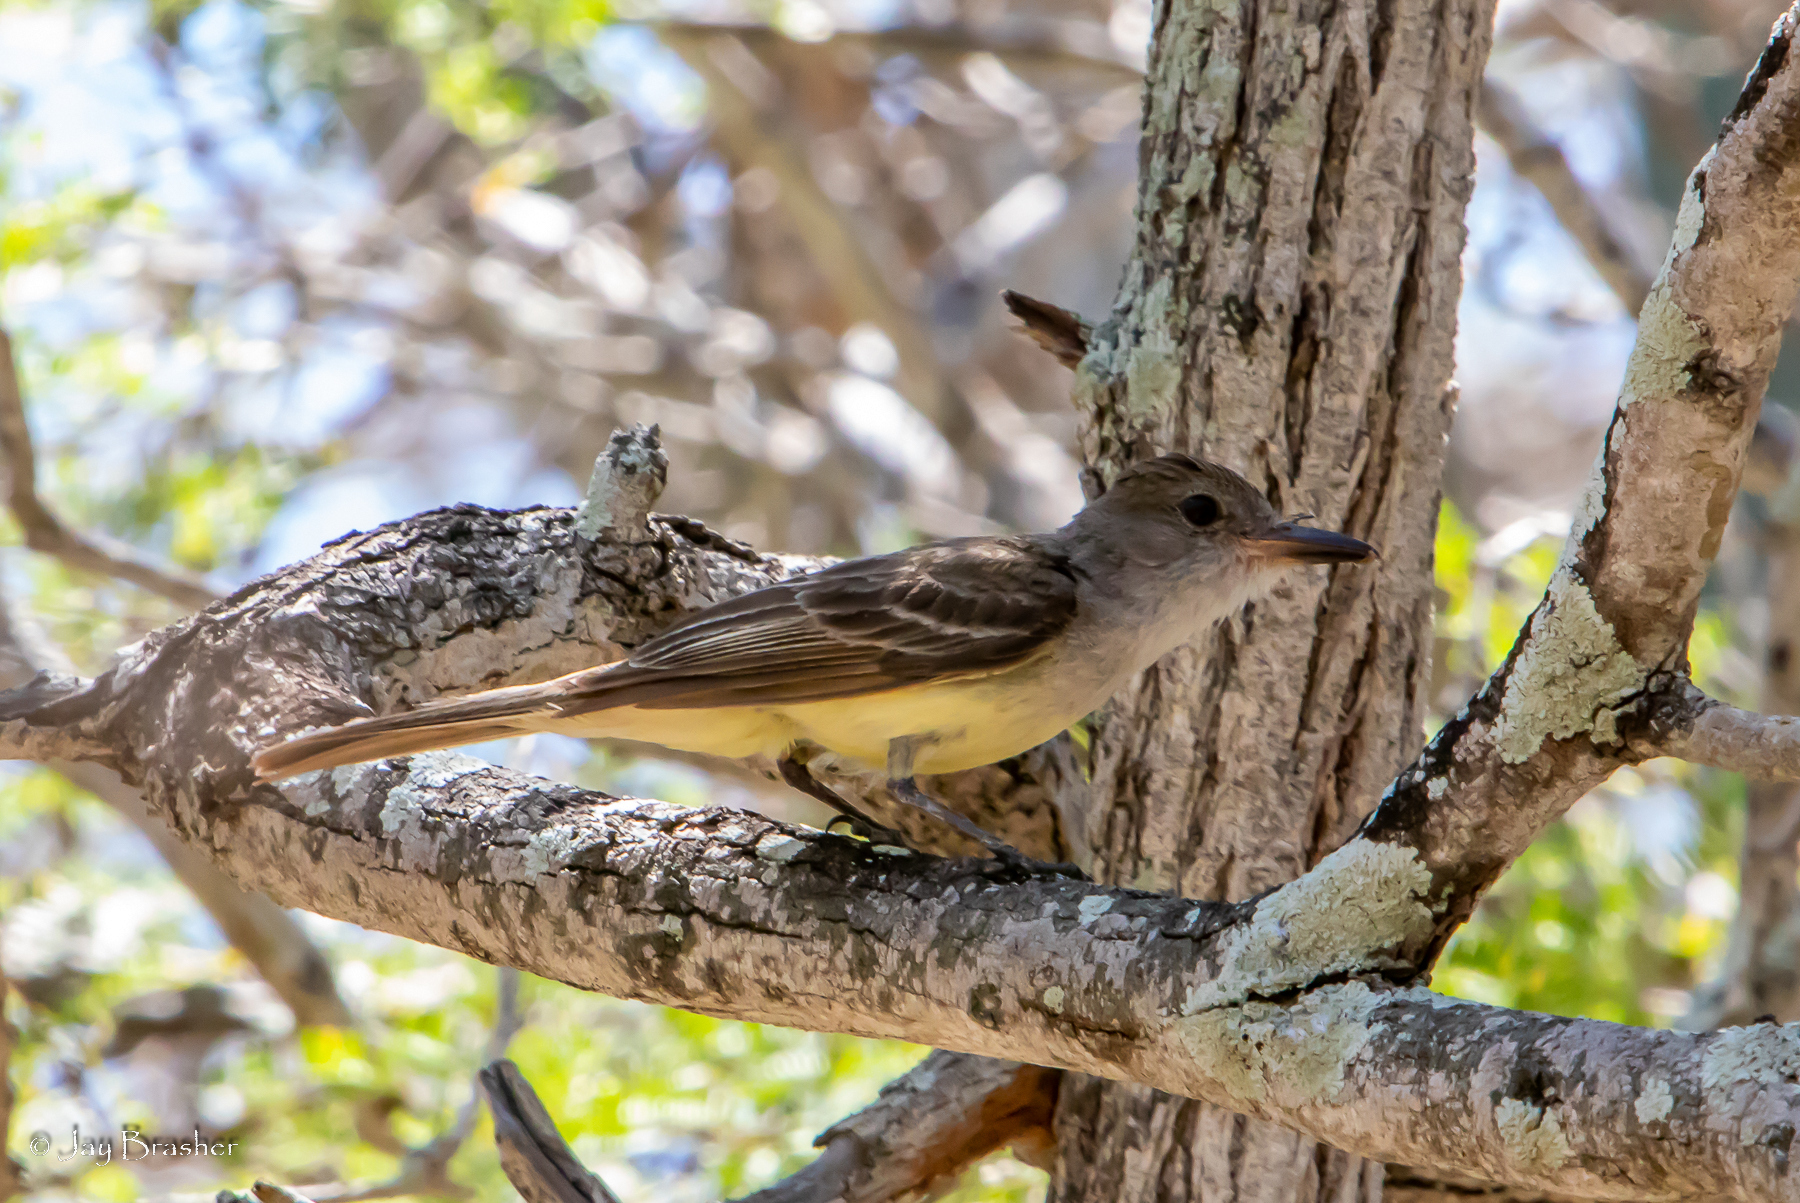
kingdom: Animalia
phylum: Chordata
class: Aves
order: Passeriformes
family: Tyrannidae
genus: Myiarchus
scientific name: Myiarchus tyrannulus
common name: Brown-crested flycatcher
